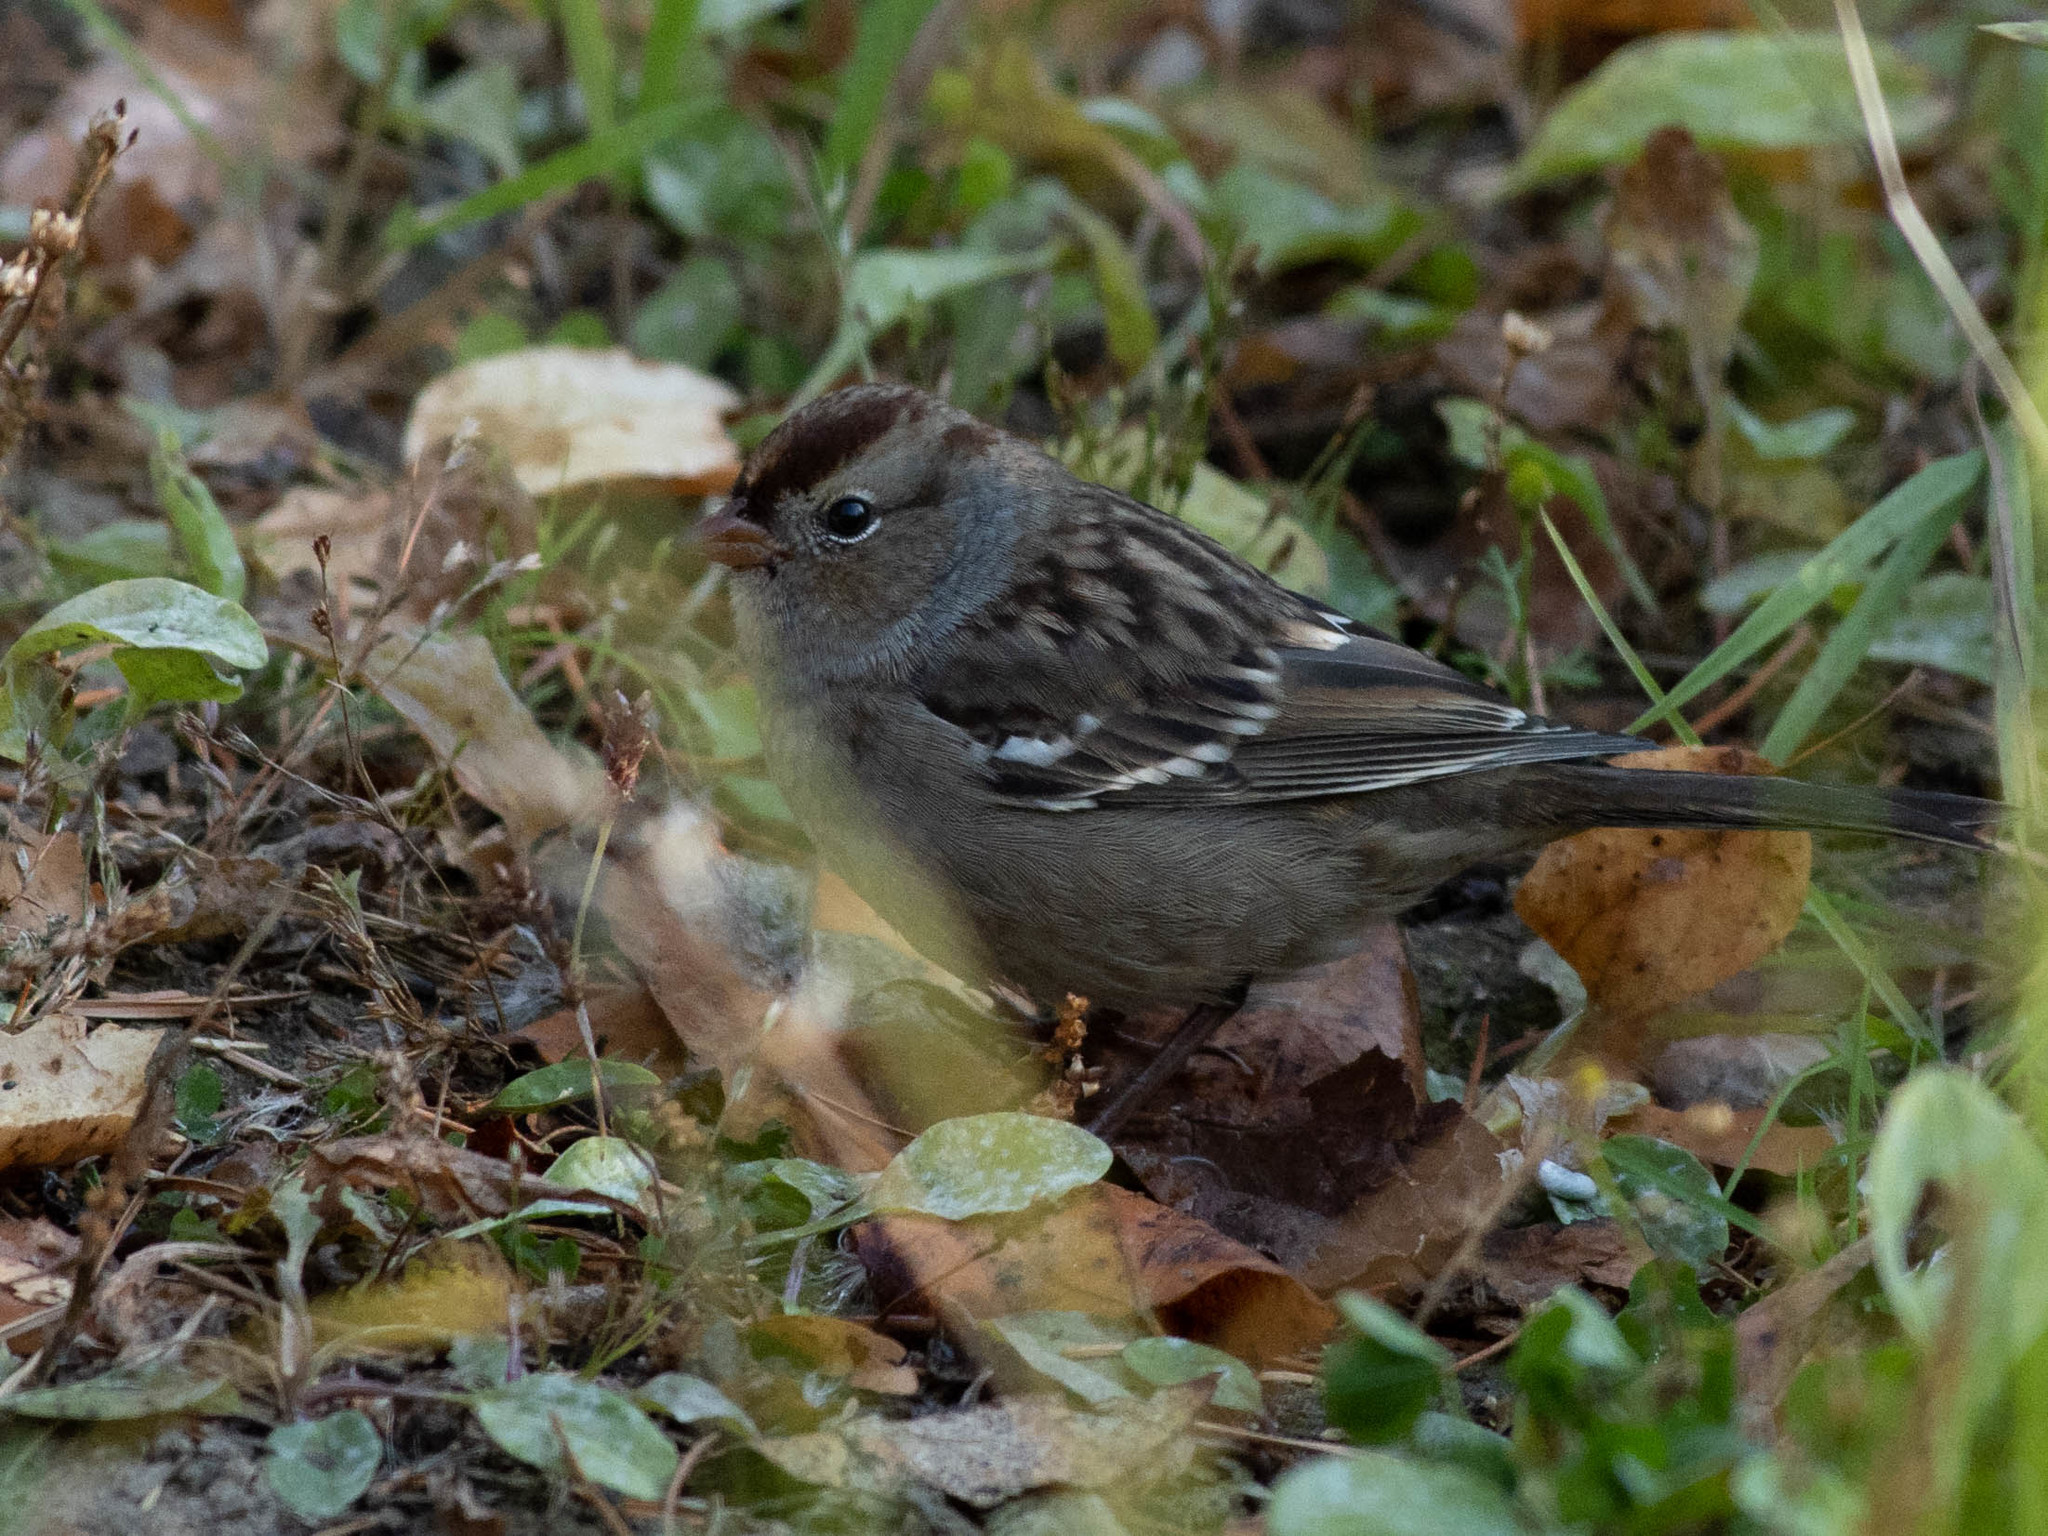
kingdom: Animalia
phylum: Chordata
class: Aves
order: Passeriformes
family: Passerellidae
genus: Zonotrichia
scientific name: Zonotrichia leucophrys
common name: White-crowned sparrow
